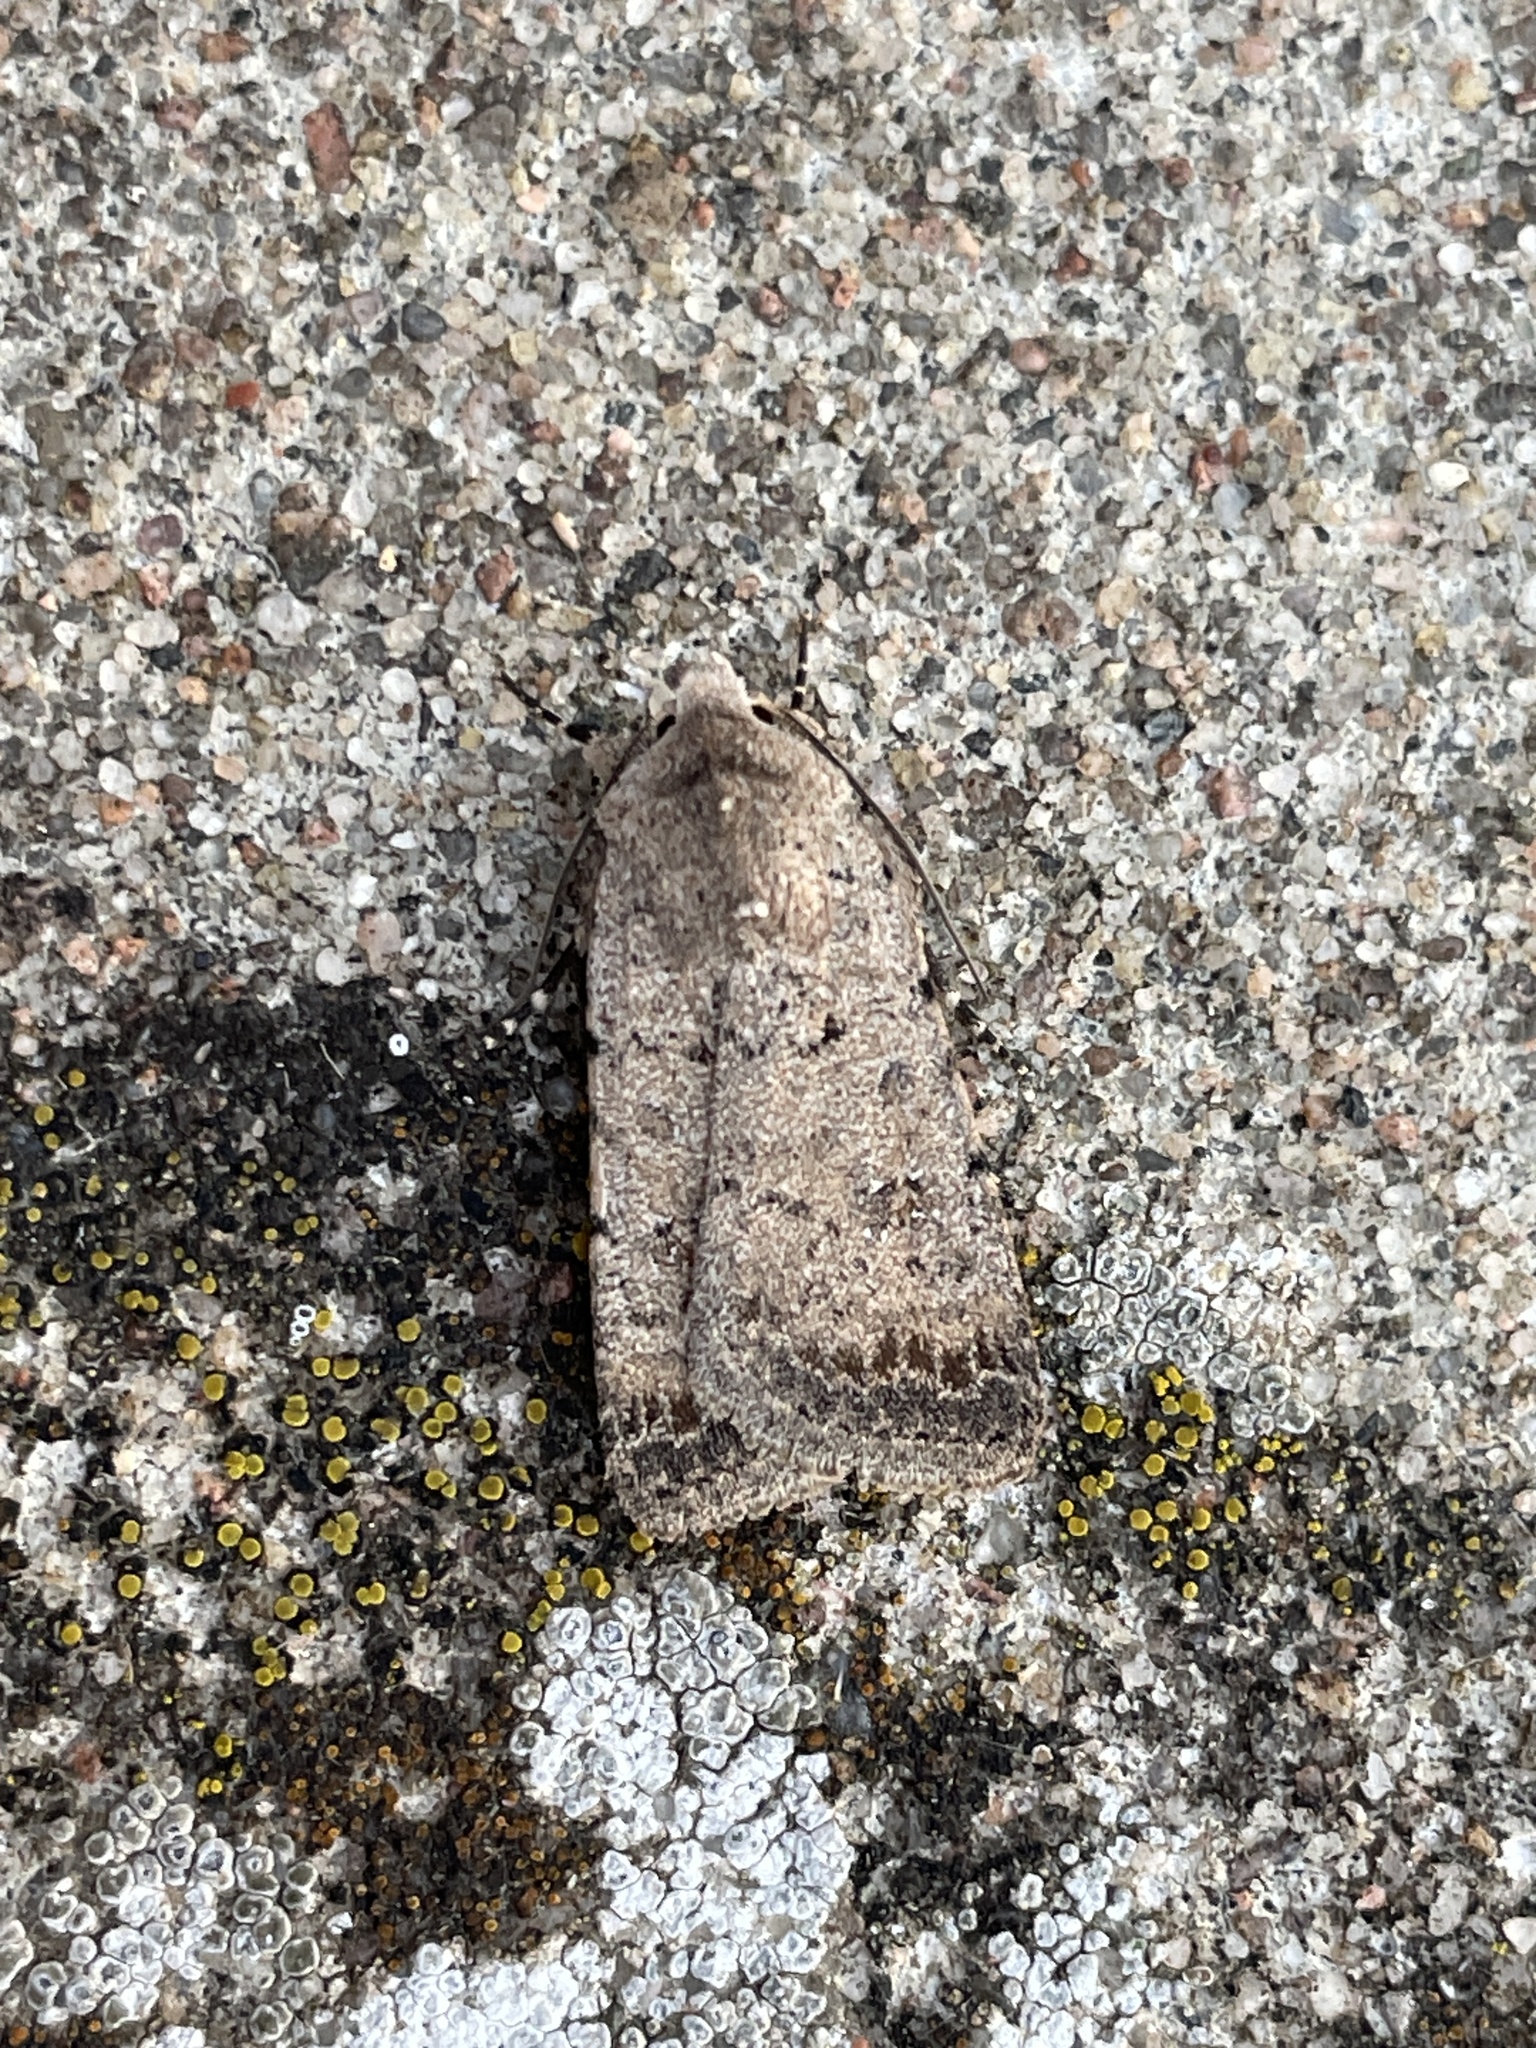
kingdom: Animalia
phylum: Arthropoda
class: Insecta
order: Lepidoptera
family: Noctuidae
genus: Caradrina
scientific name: Caradrina clavipalpis
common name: Pale mottled willow
